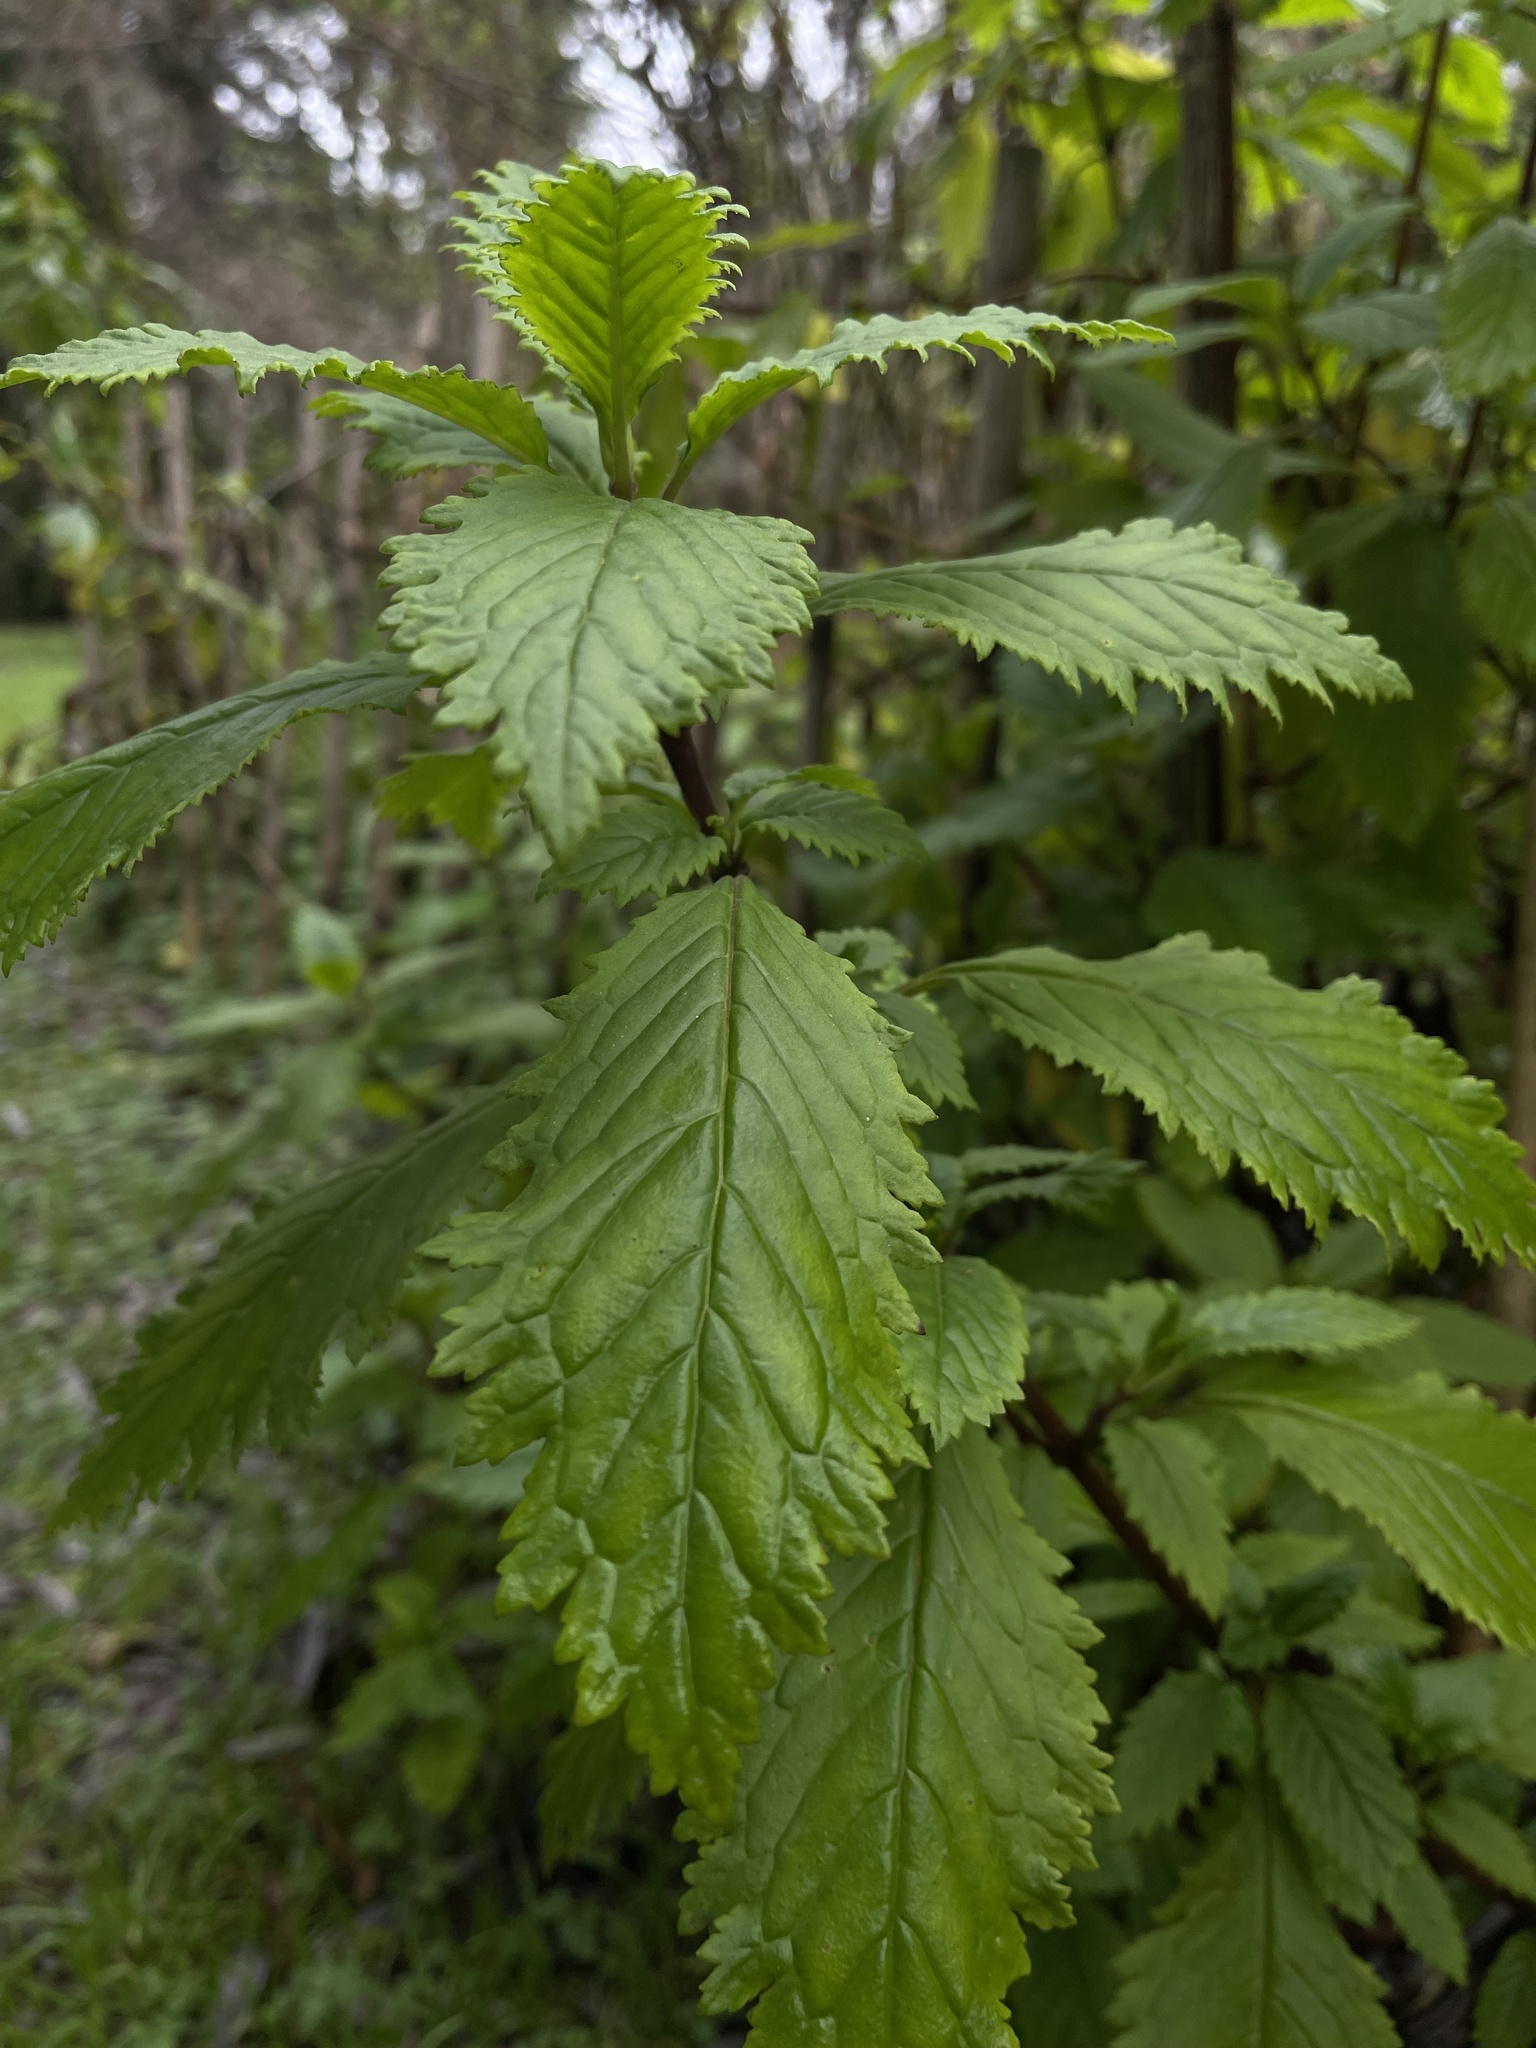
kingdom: Plantae
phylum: Tracheophyta
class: Magnoliopsida
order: Lamiales
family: Calceolariaceae
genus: Jovellana
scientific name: Jovellana punctata
